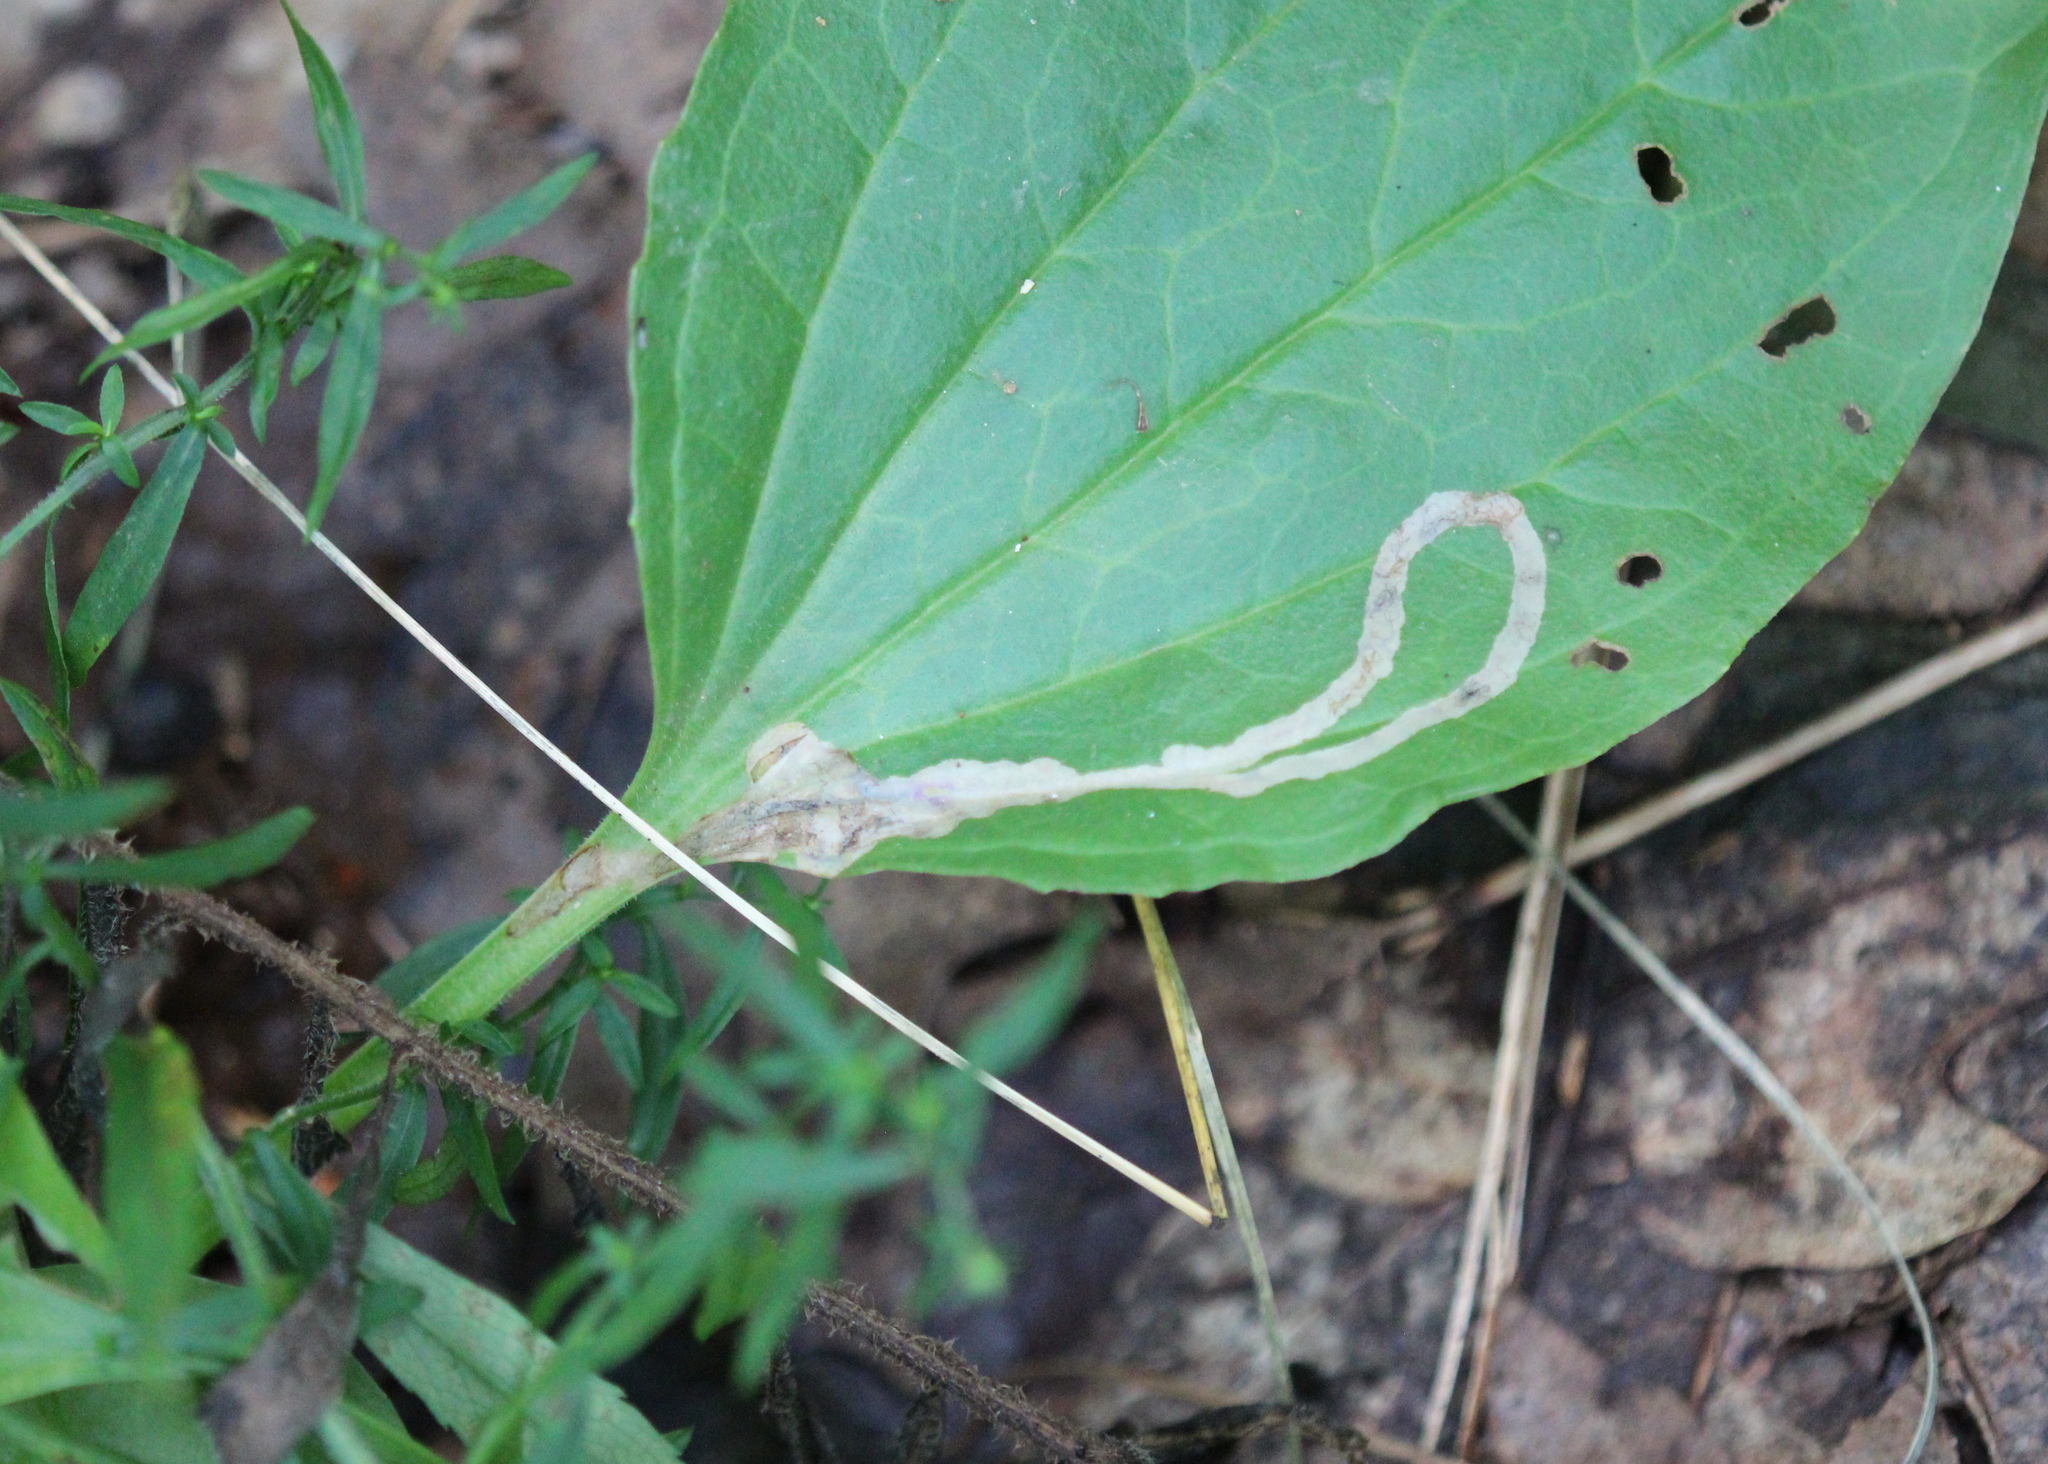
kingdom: Animalia
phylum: Arthropoda
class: Insecta
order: Coleoptera
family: Chrysomelidae
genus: Dibolia
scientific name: Dibolia borealis
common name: Northern plantain flea beetle
